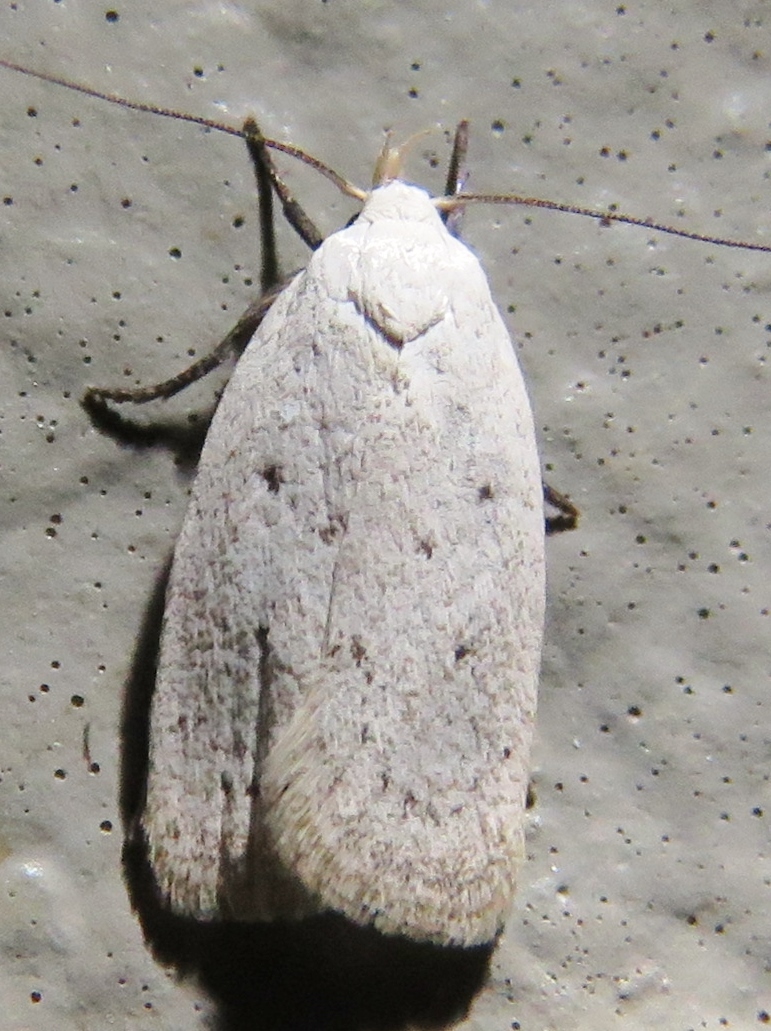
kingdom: Animalia
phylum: Arthropoda
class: Insecta
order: Lepidoptera
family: Oecophoridae
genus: Inga
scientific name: Inga cretacea
